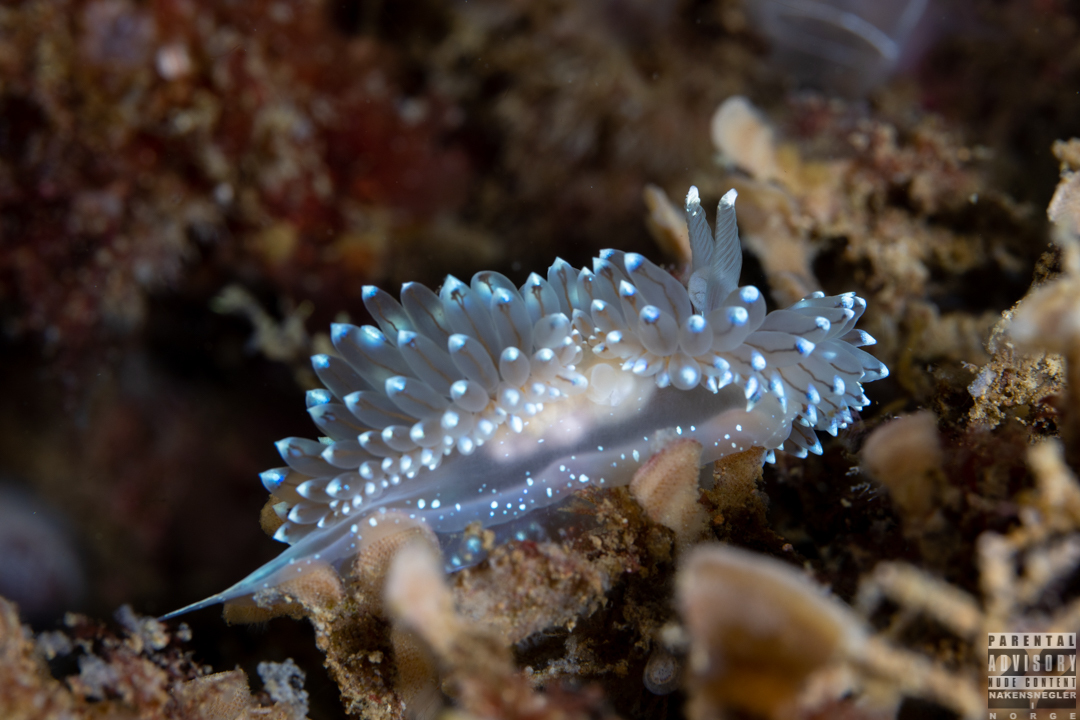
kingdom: Animalia
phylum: Mollusca
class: Gastropoda
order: Nudibranchia
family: Janolidae
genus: Antiopella
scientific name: Antiopella cristata
